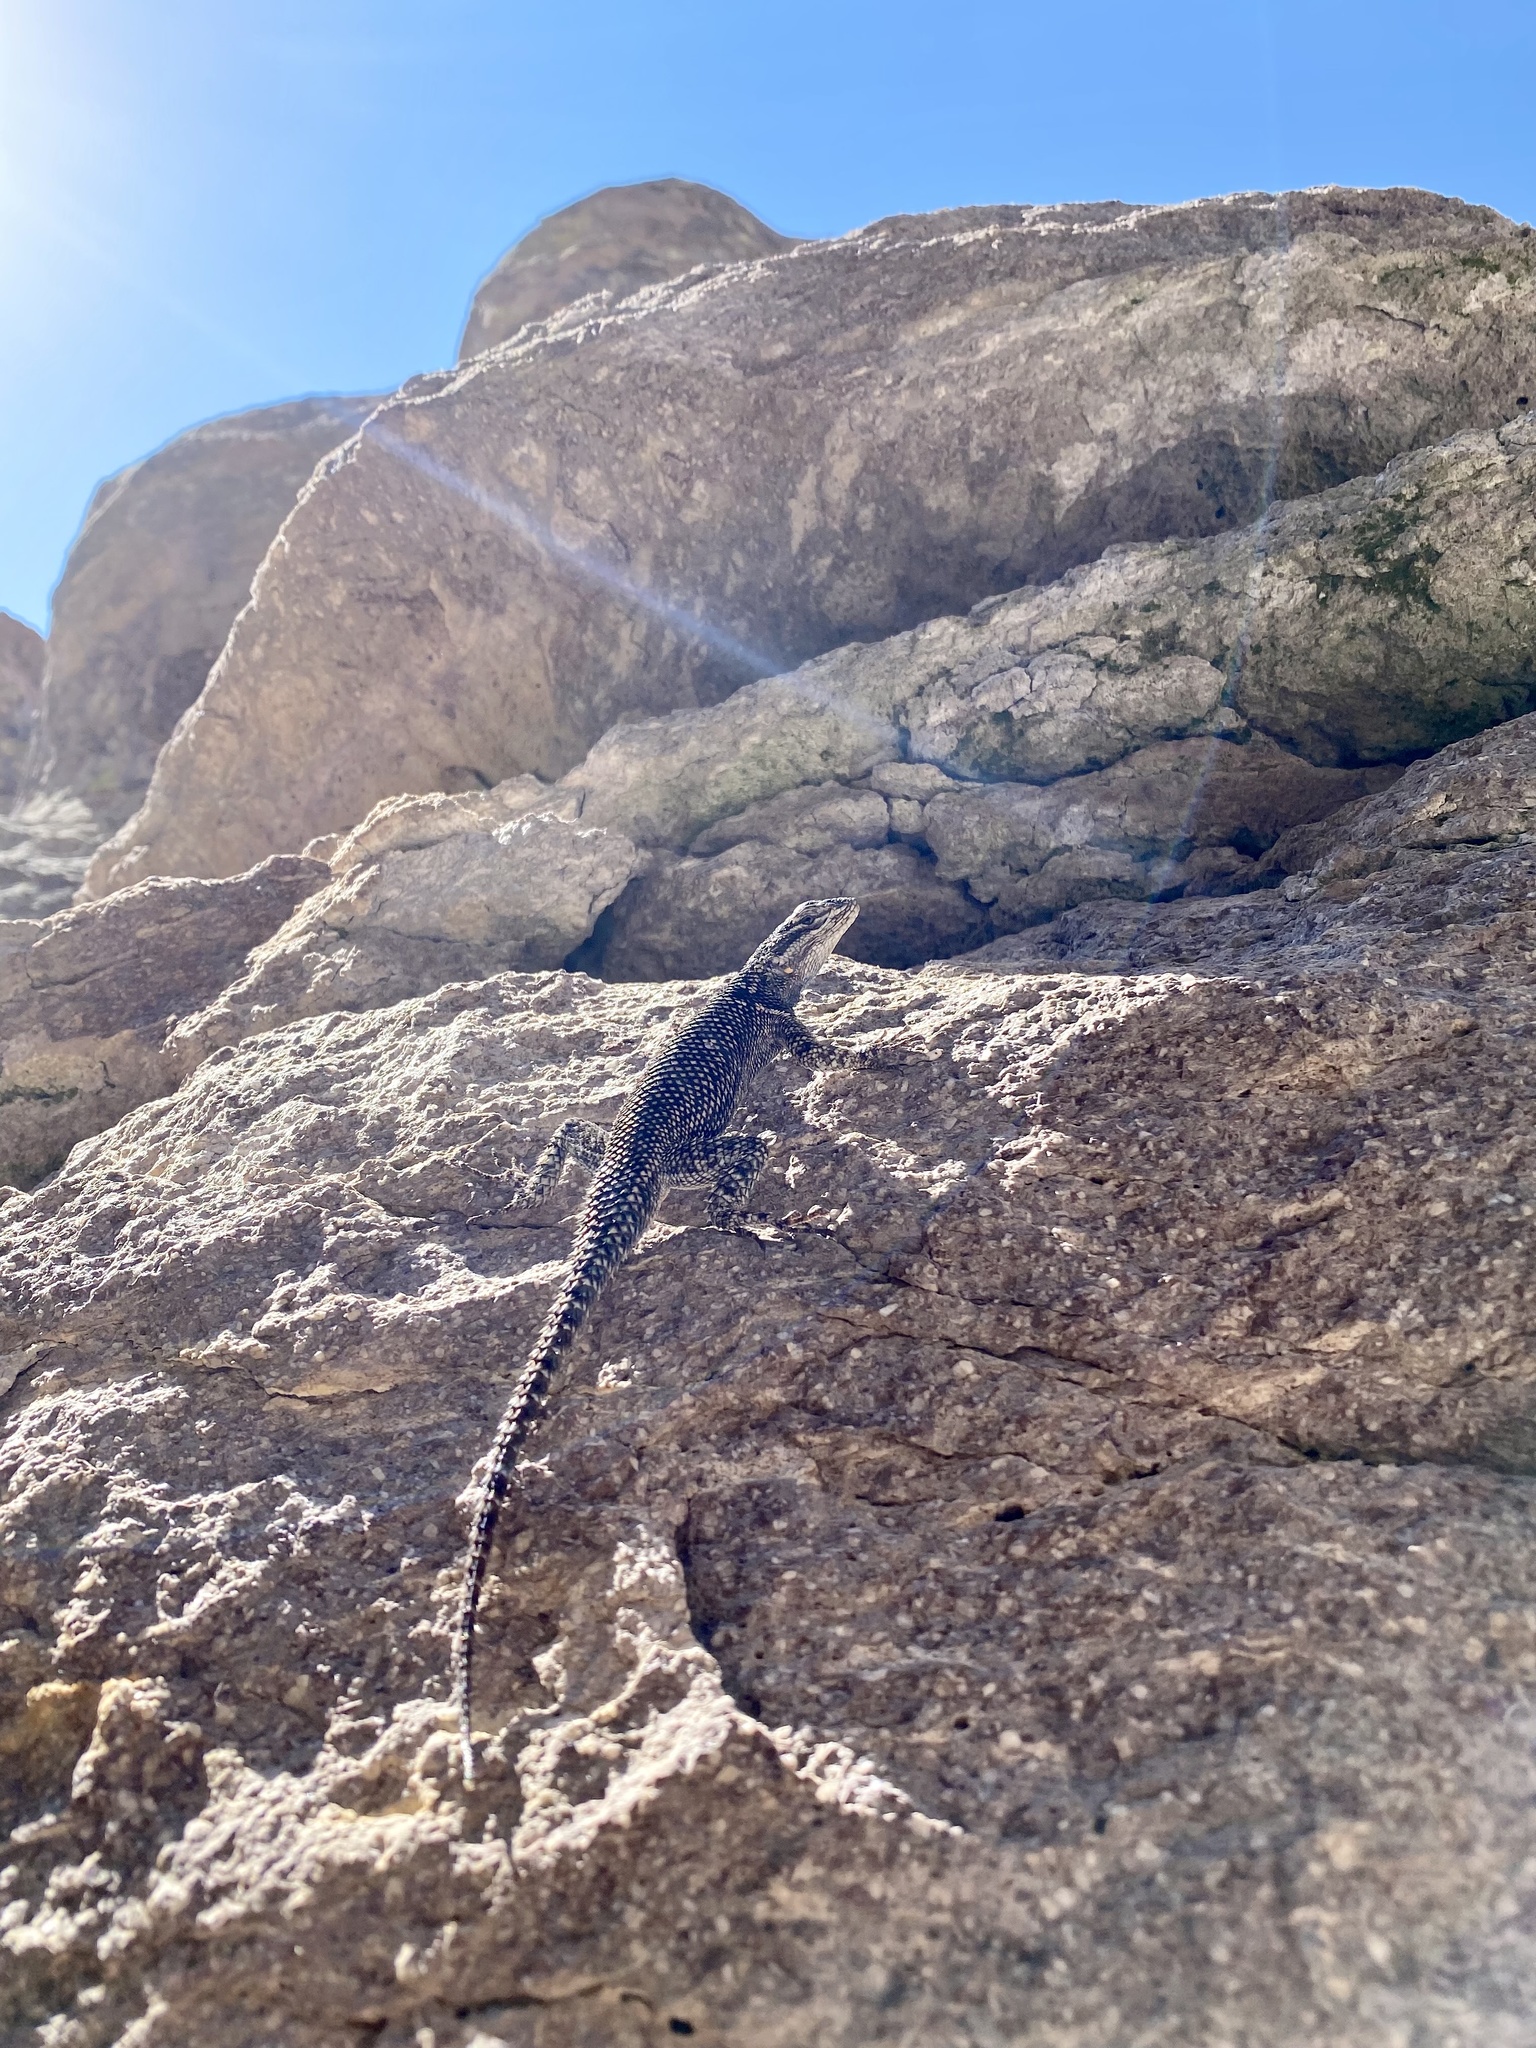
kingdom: Animalia
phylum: Chordata
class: Squamata
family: Phrynosomatidae
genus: Sceloporus
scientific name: Sceloporus jarrovii
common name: Yarrow's spiny lizard
